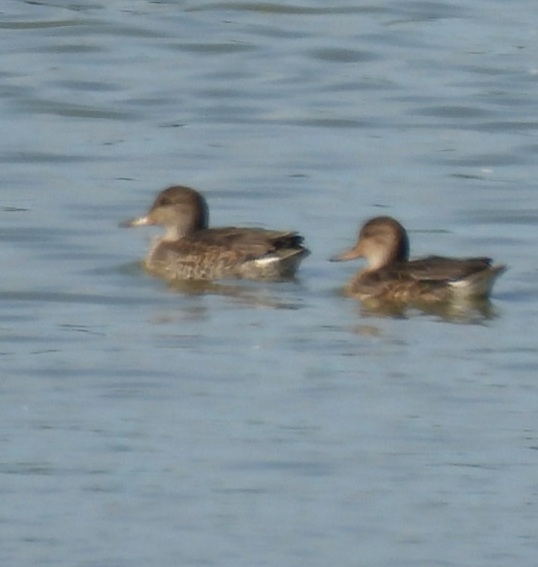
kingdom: Animalia
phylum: Chordata
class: Aves
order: Anseriformes
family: Anatidae
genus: Mareca
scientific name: Mareca strepera
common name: Gadwall
